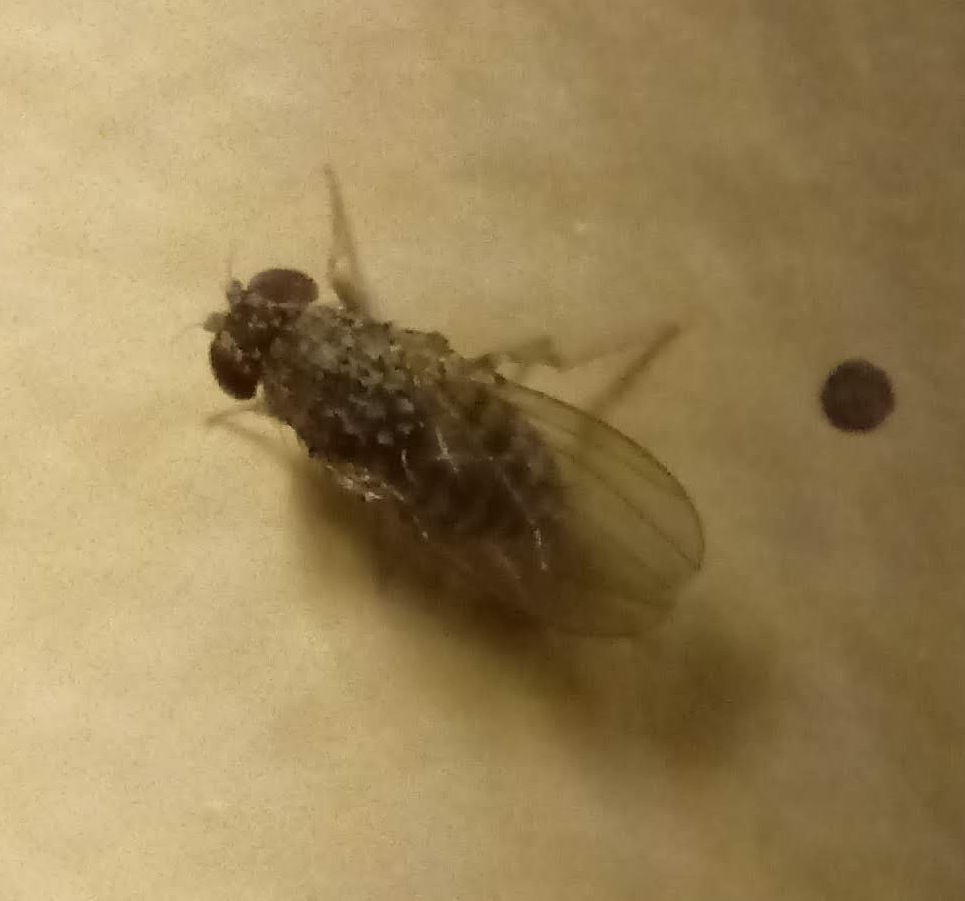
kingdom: Animalia
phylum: Arthropoda
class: Insecta
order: Diptera
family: Drosophilidae
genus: Drosophila
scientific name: Drosophila repleta
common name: Pomace fly
